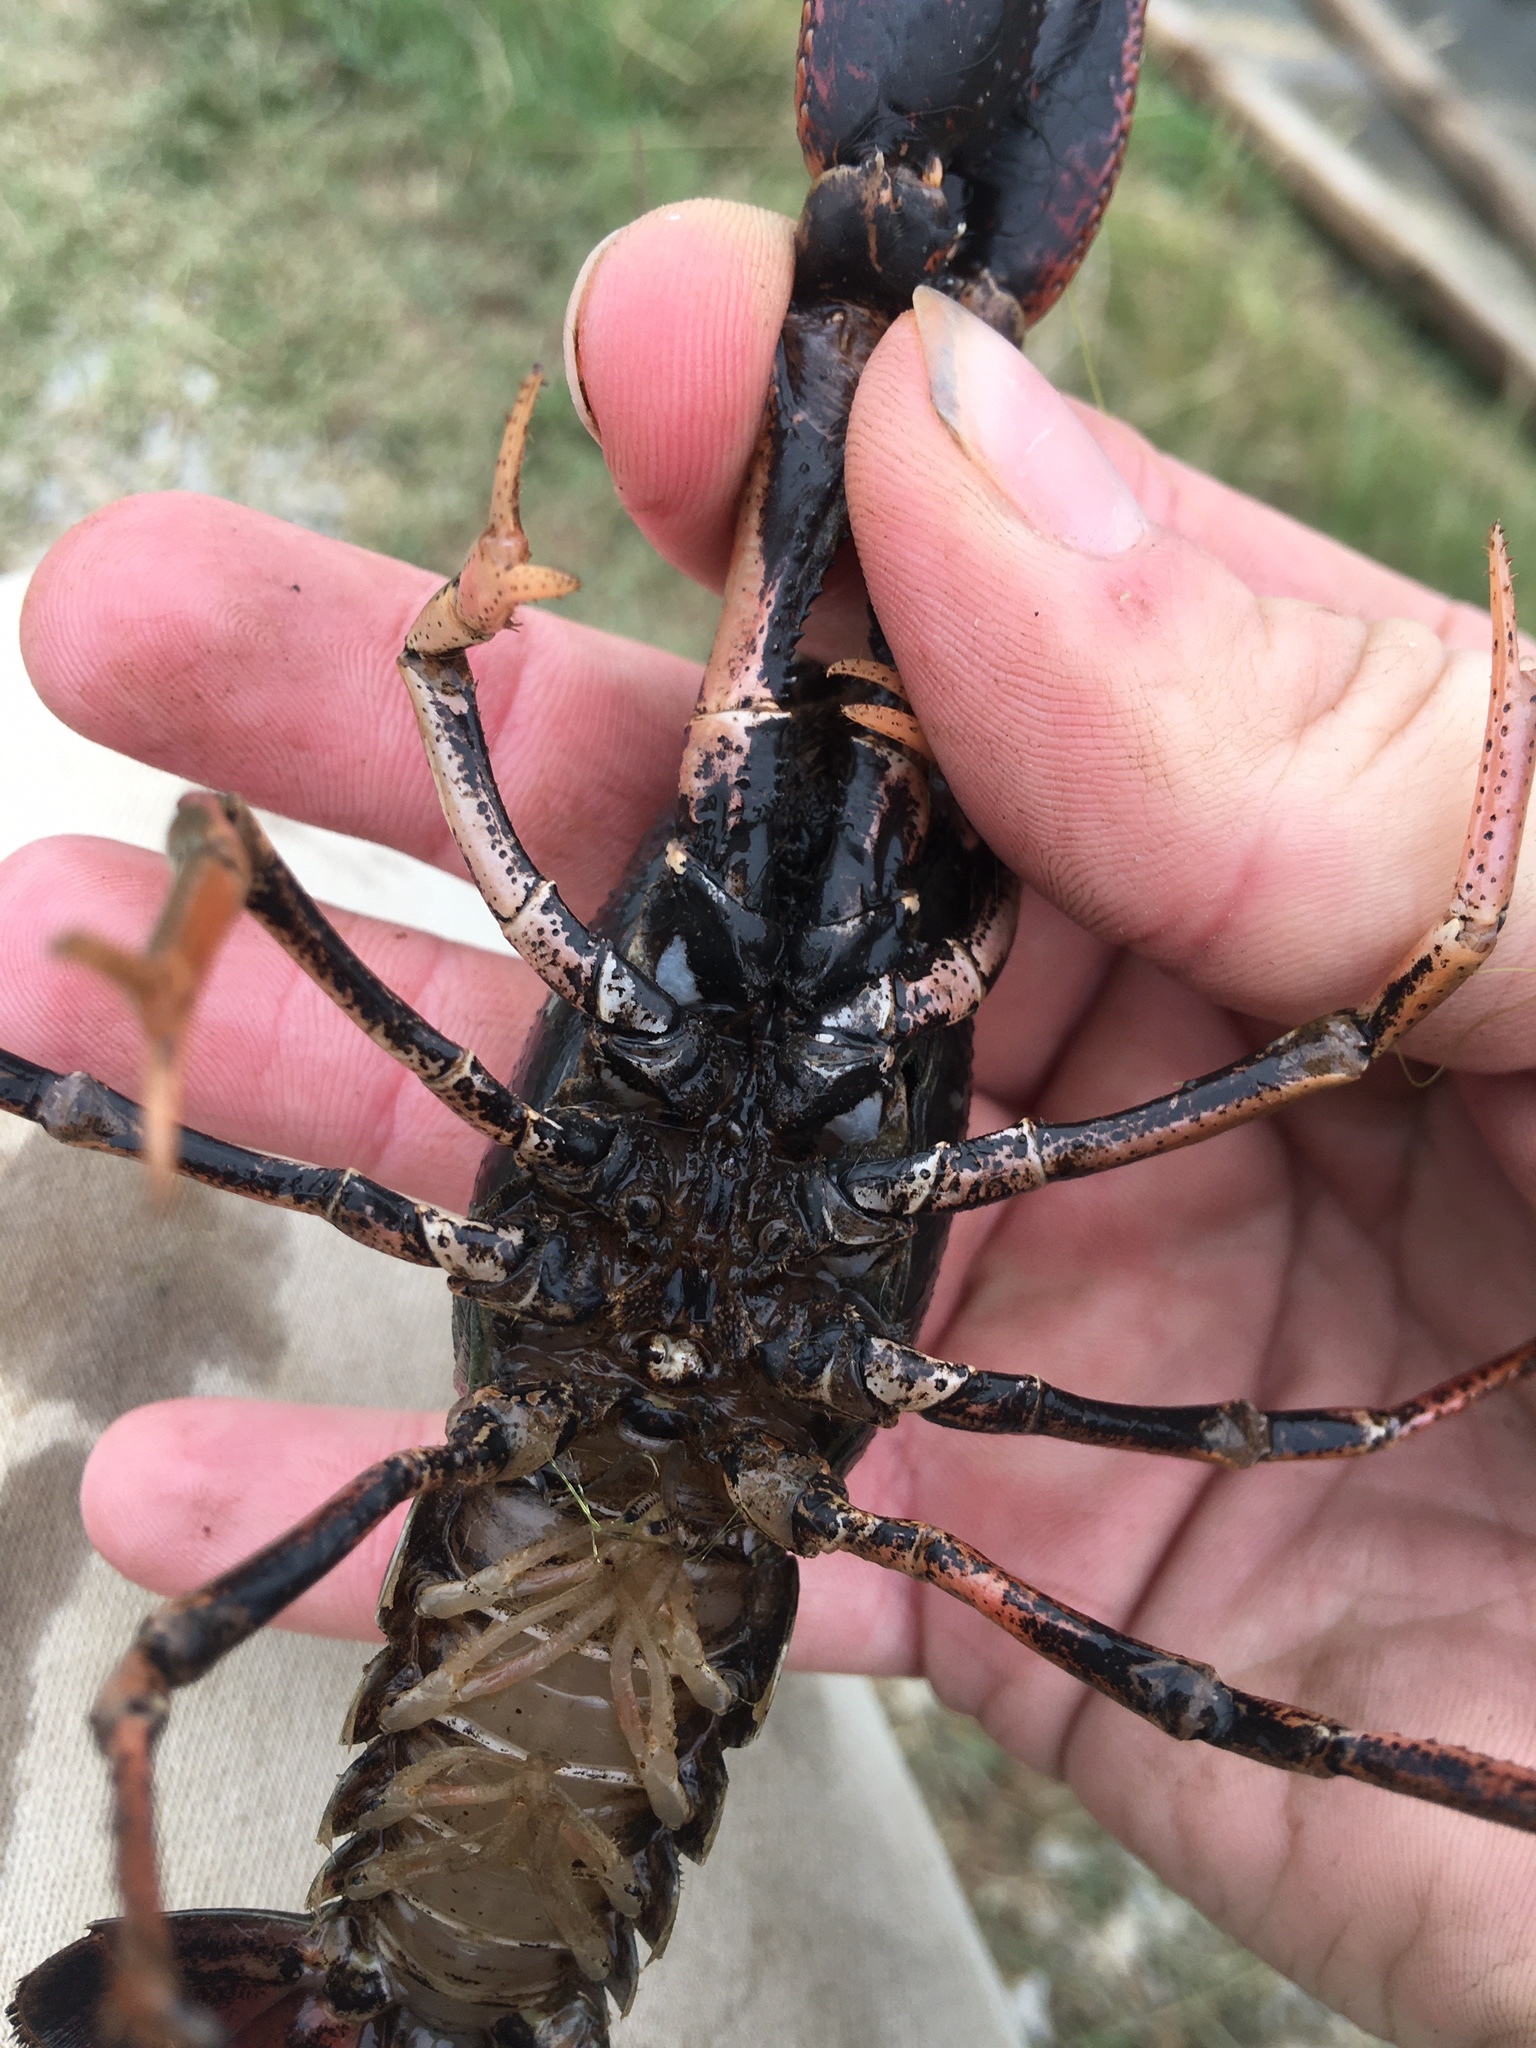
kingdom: Animalia
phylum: Arthropoda
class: Malacostraca
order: Decapoda
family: Cambaridae
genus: Procambarus
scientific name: Procambarus acutus
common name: White river crayfish
